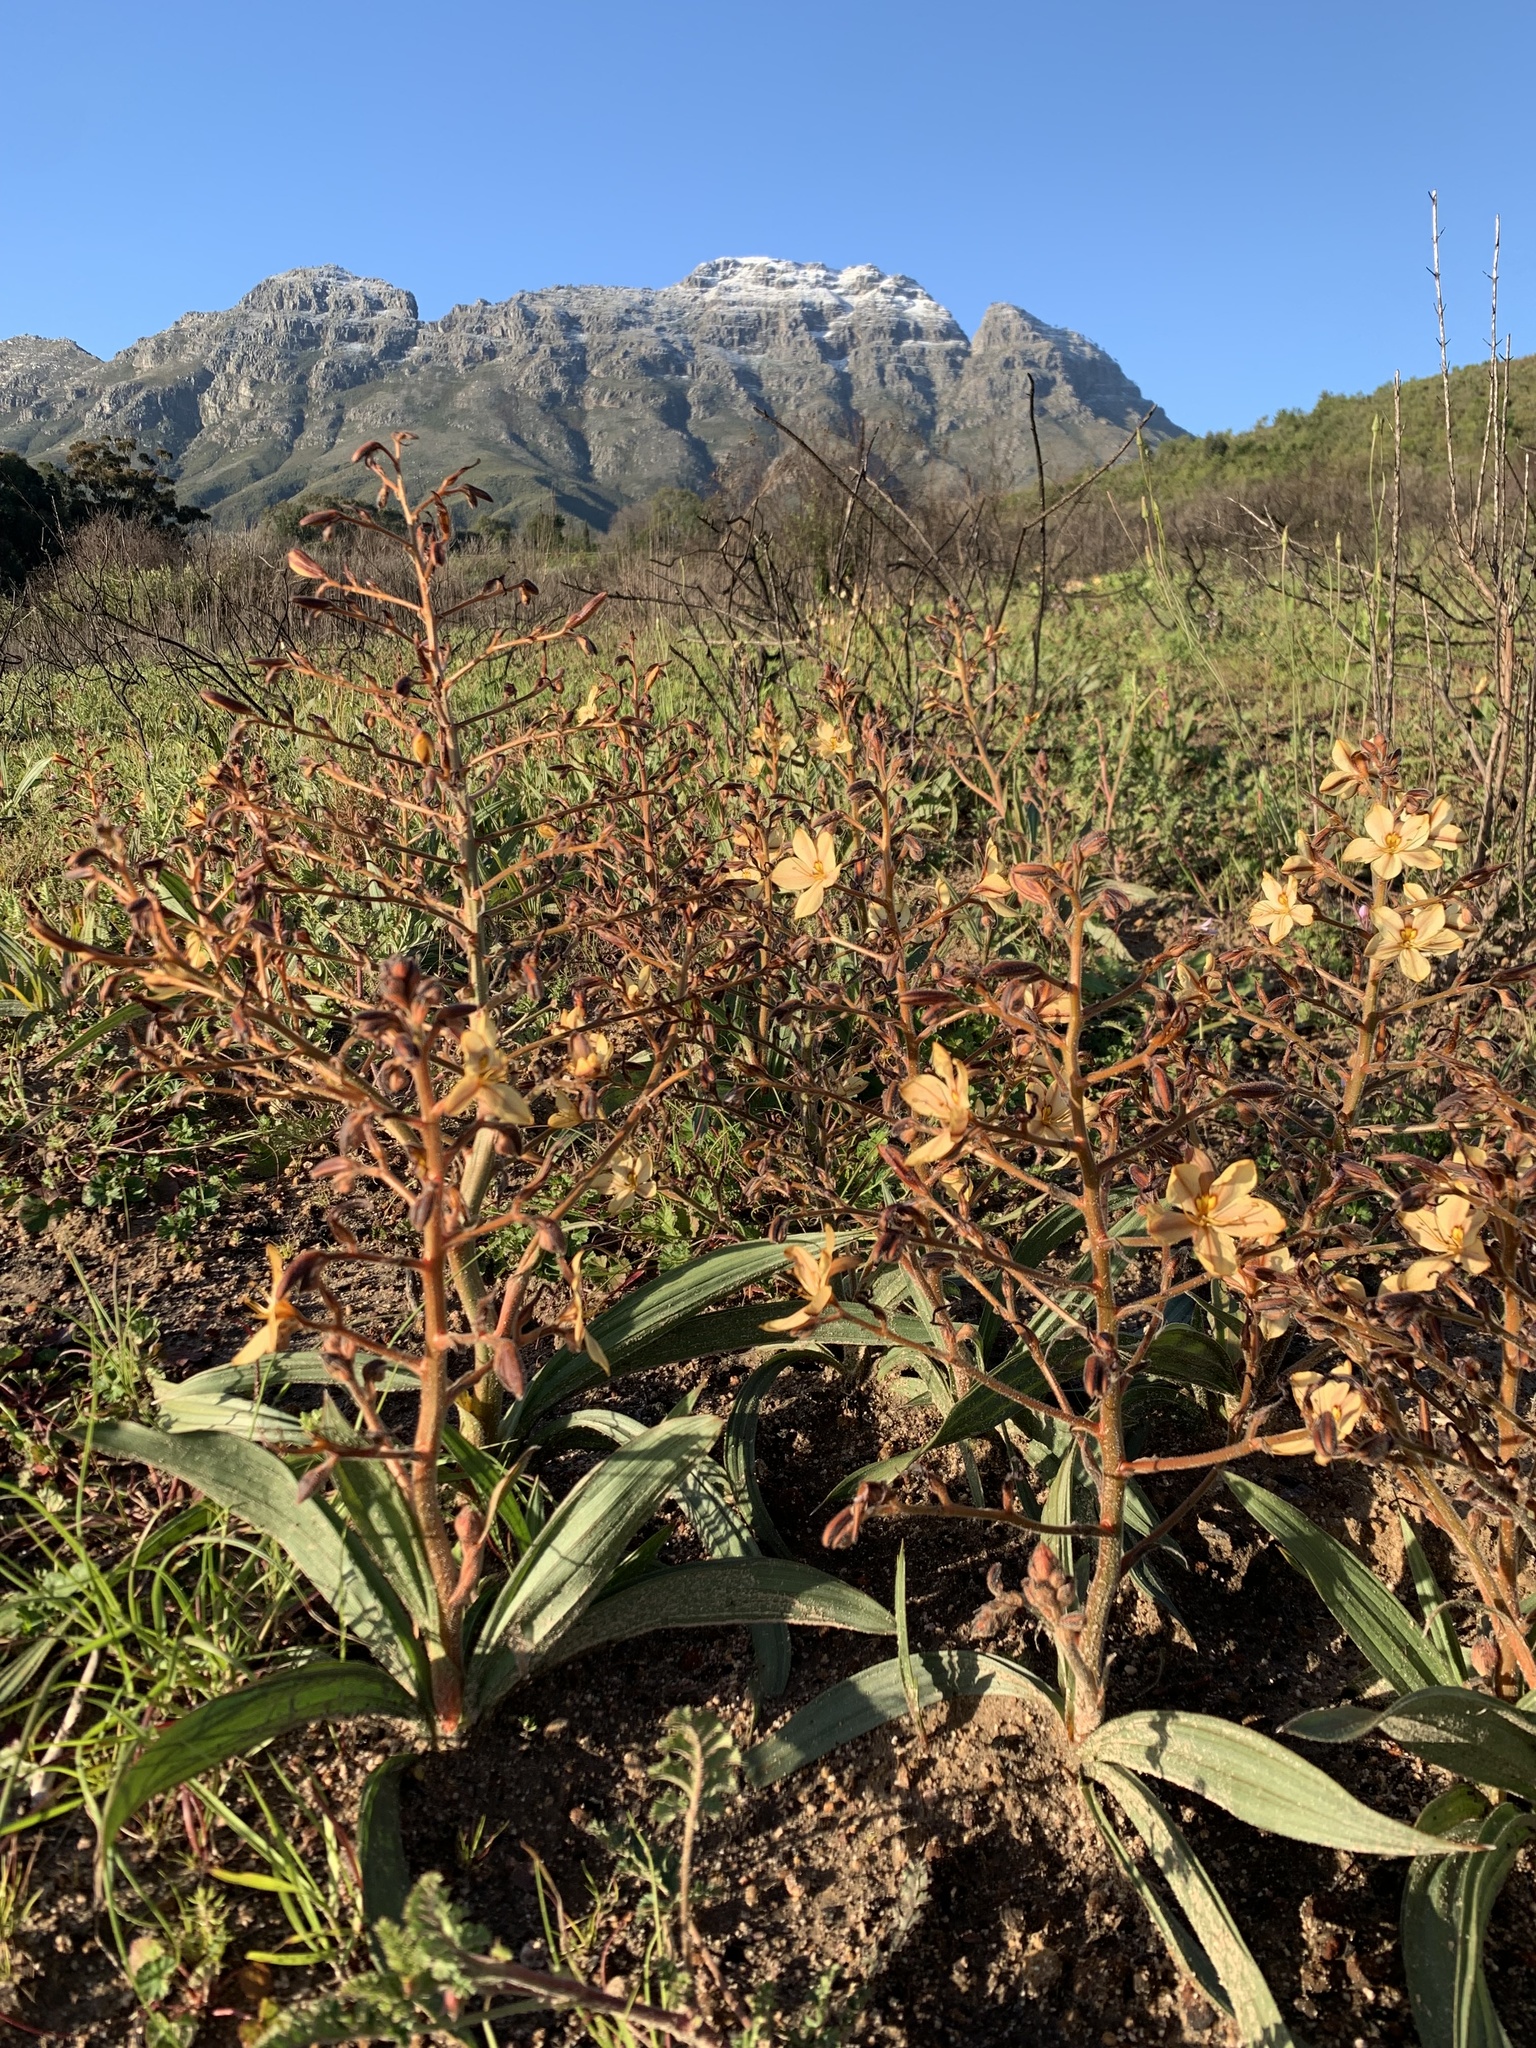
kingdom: Plantae
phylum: Tracheophyta
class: Liliopsida
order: Commelinales
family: Haemodoraceae
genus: Wachendorfia
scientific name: Wachendorfia paniculata
